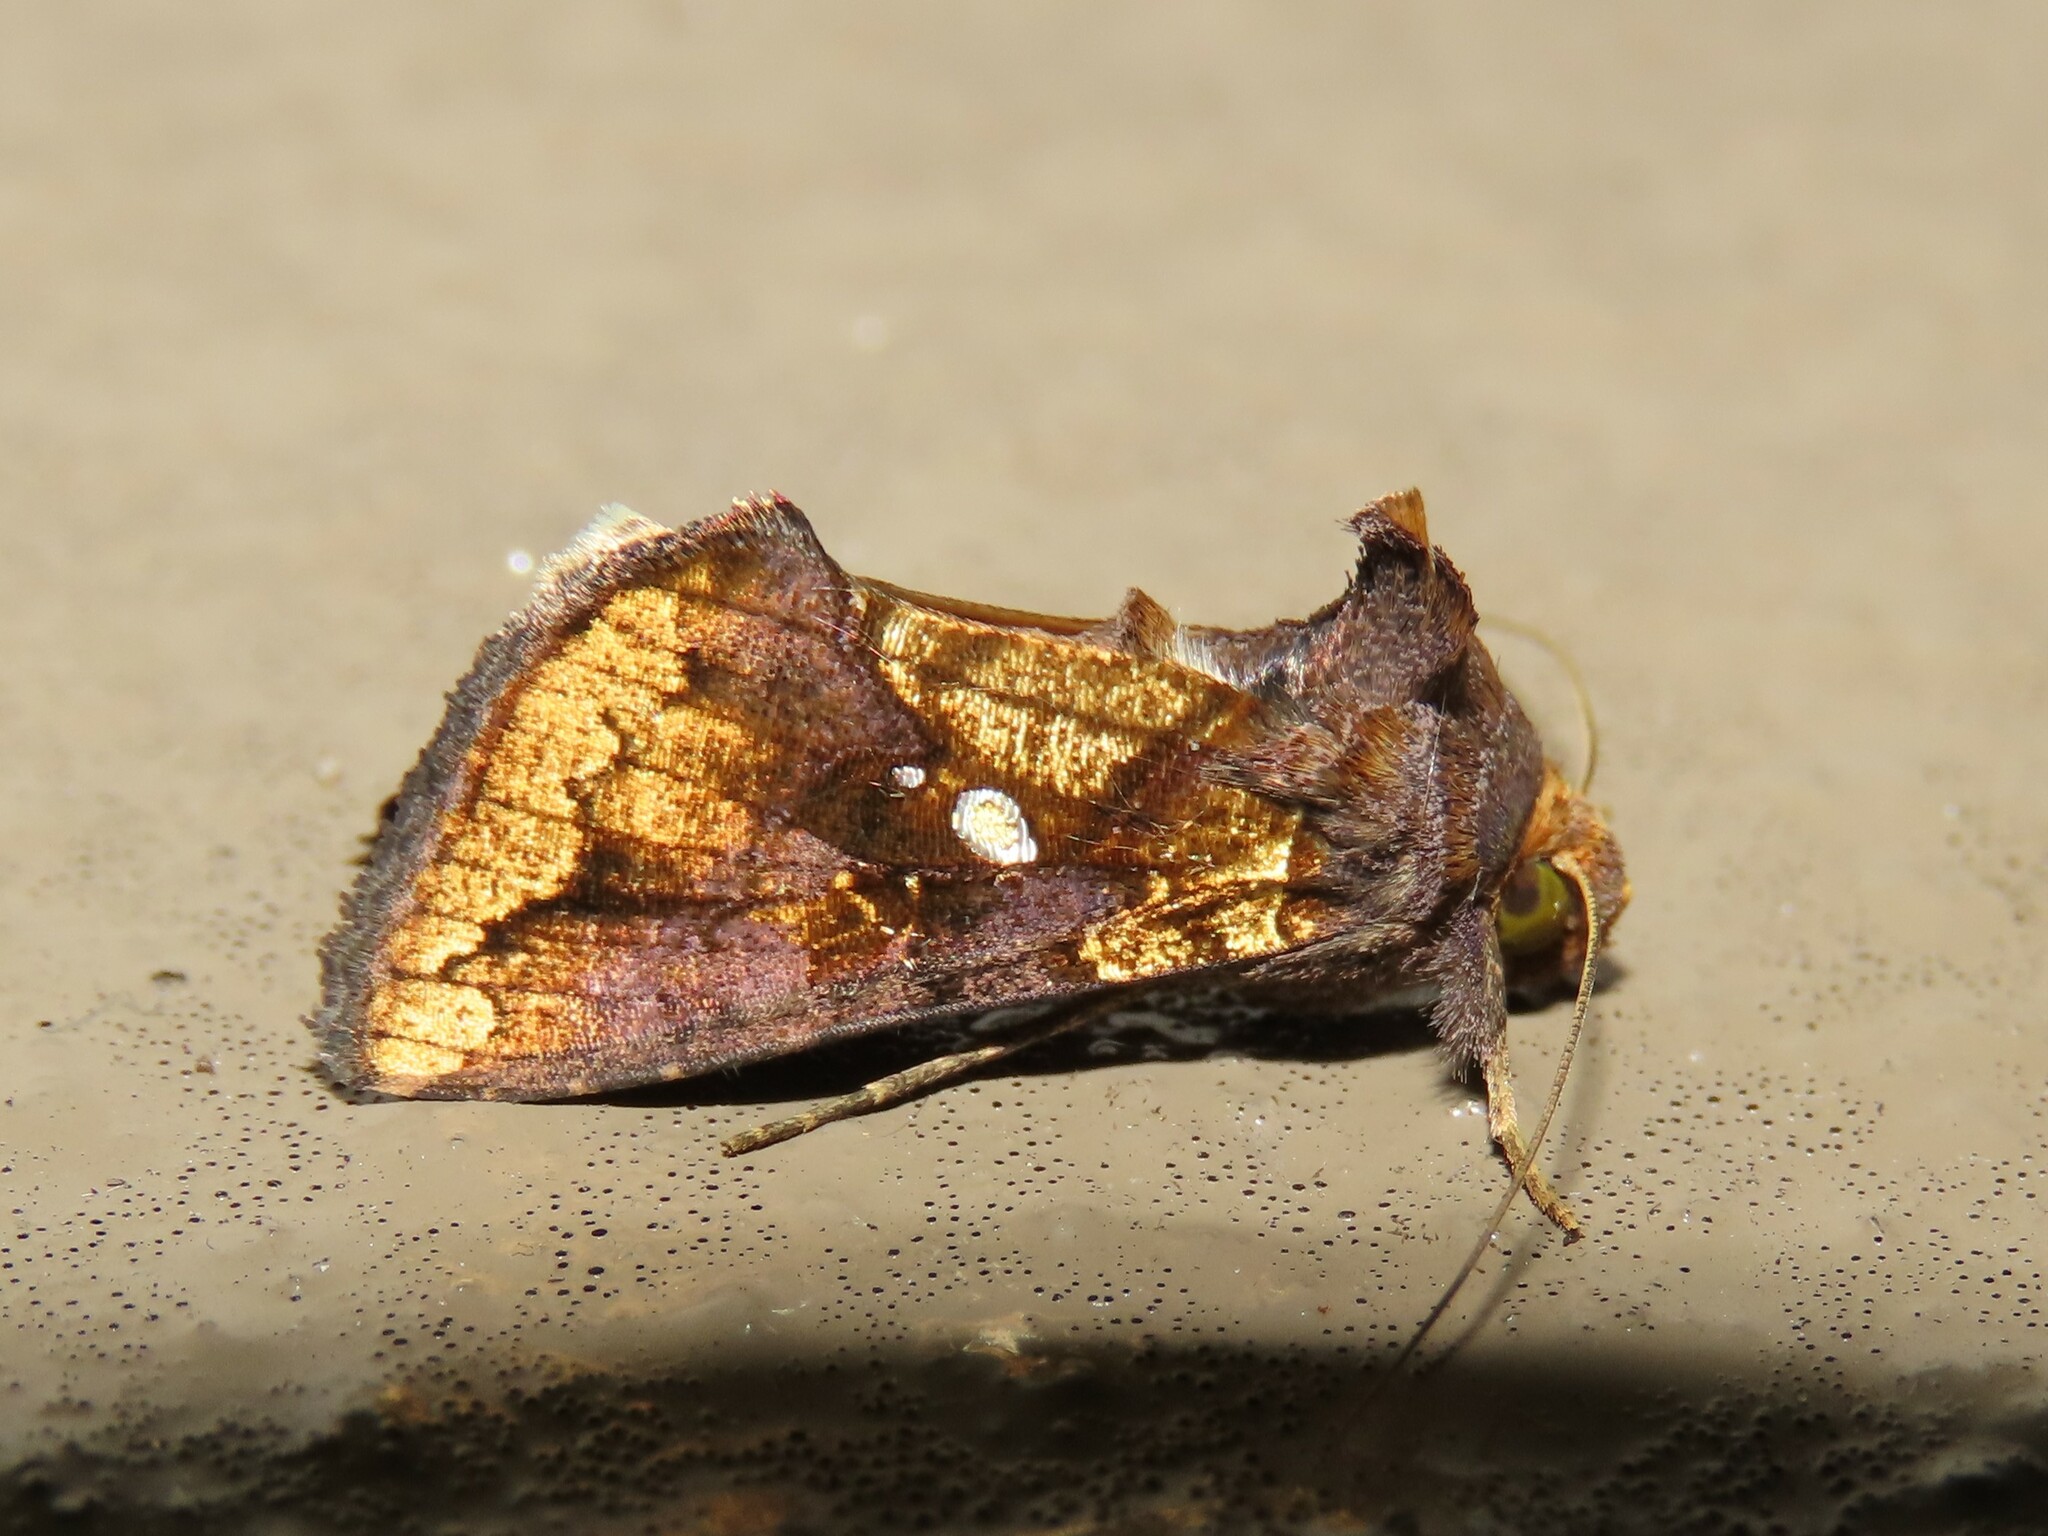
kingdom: Animalia
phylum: Arthropoda
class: Insecta
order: Lepidoptera
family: Noctuidae
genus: Argyrogramma
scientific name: Argyrogramma verruca
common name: Golden looper moth
